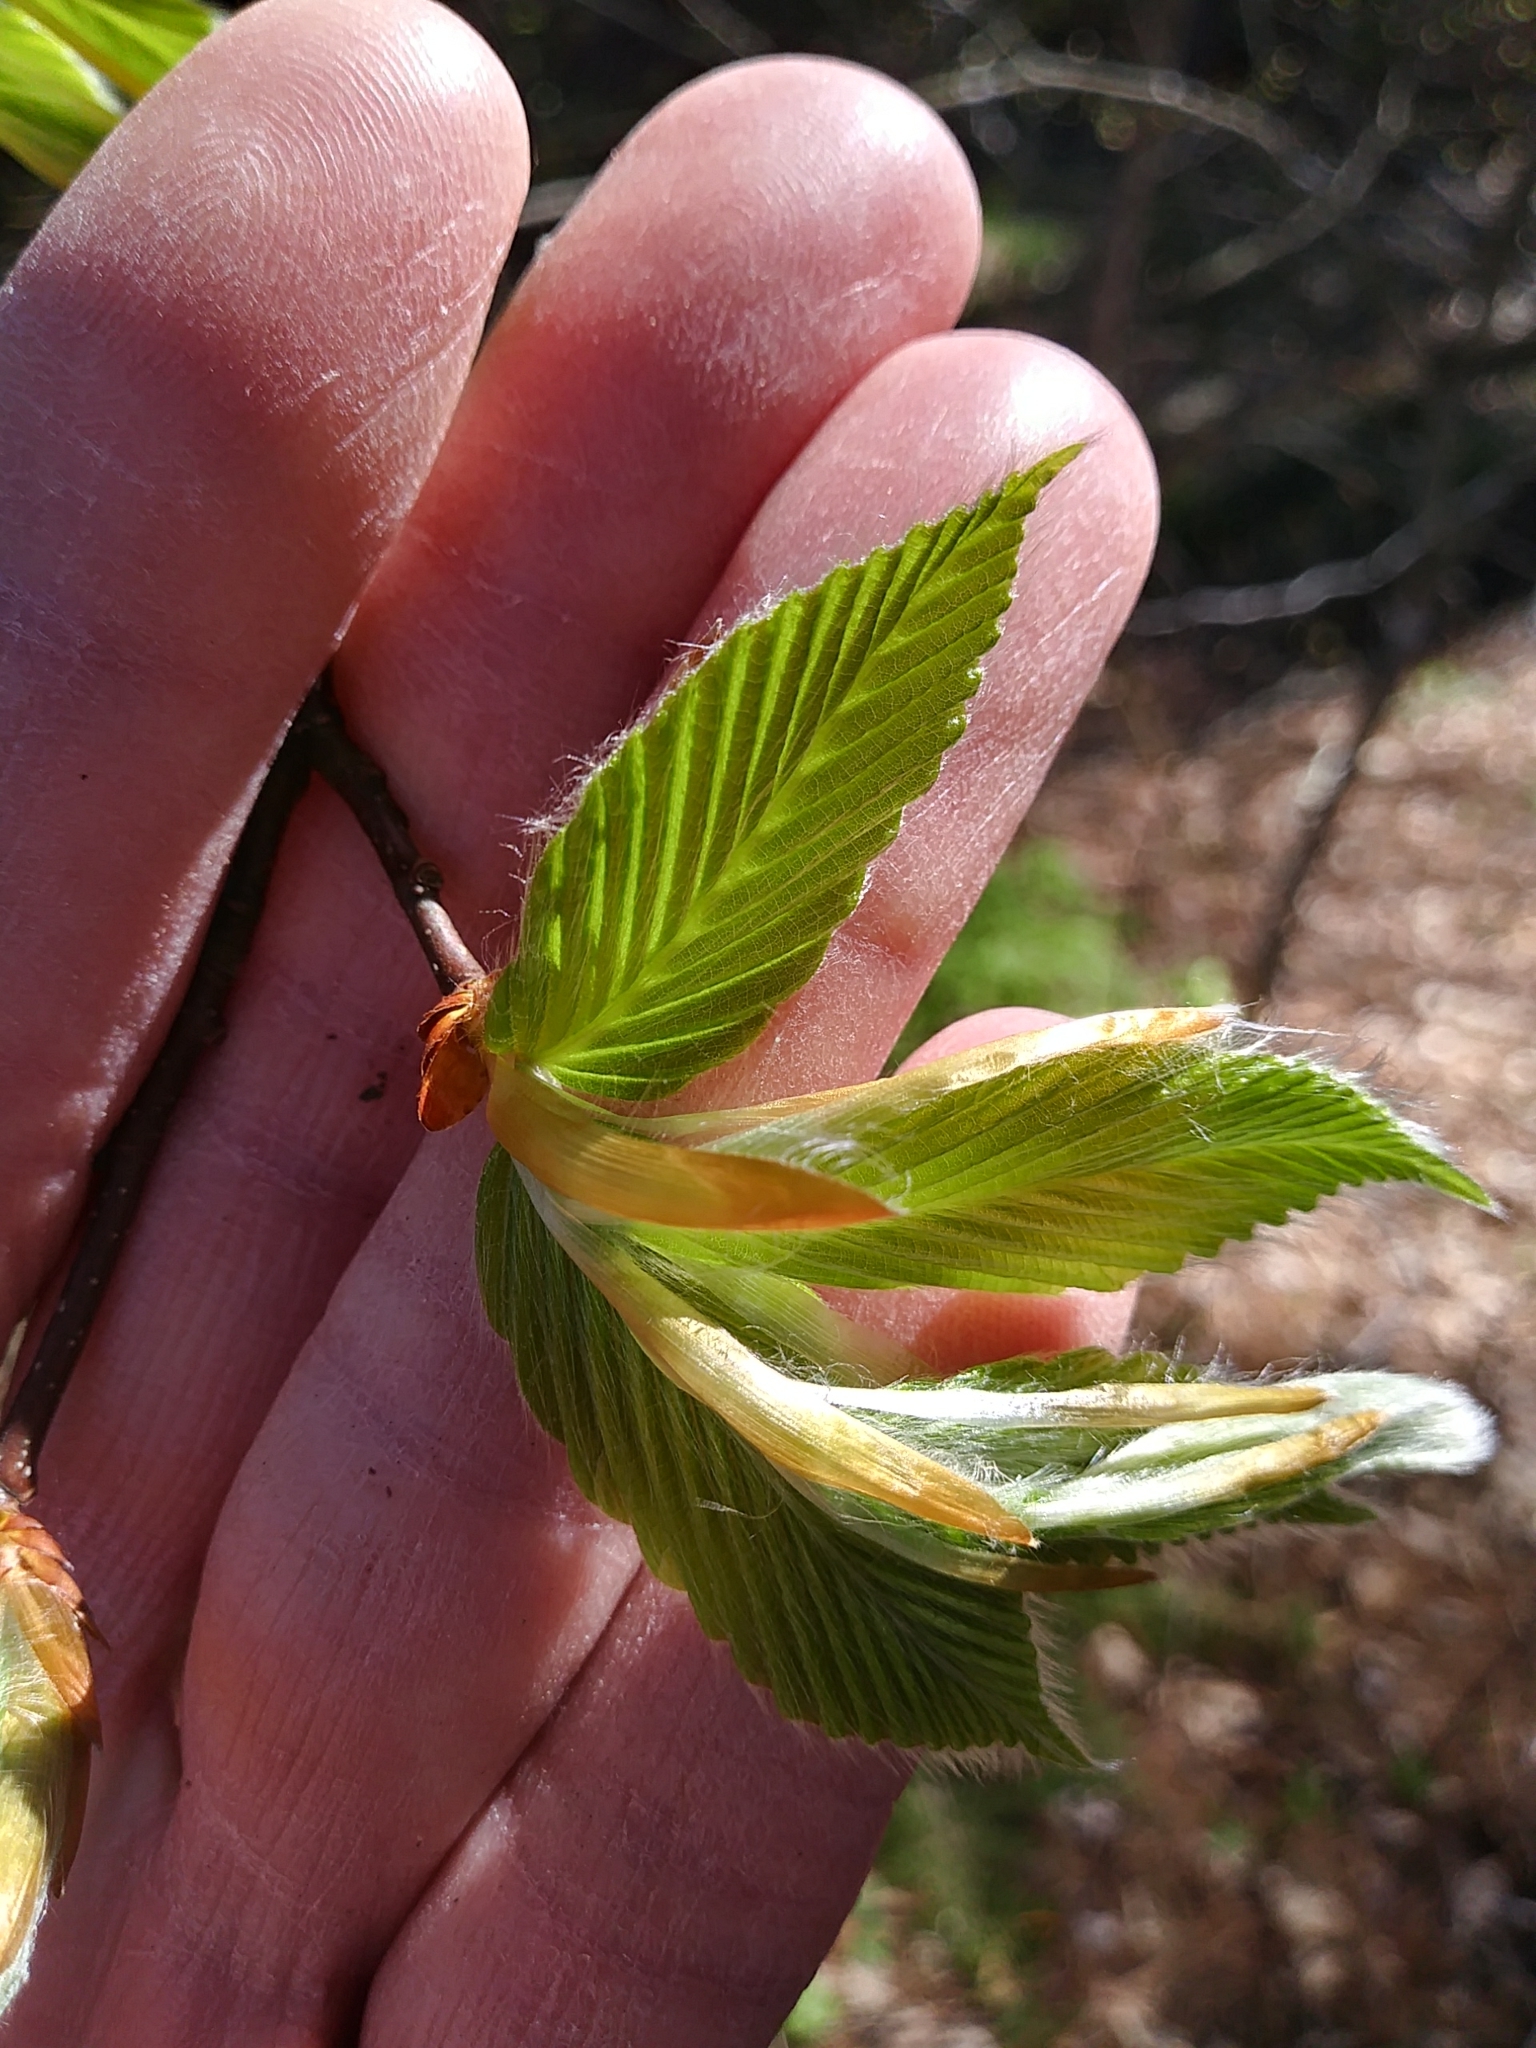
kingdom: Plantae
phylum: Tracheophyta
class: Magnoliopsida
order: Fagales
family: Fagaceae
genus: Fagus
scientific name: Fagus grandifolia
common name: American beech
